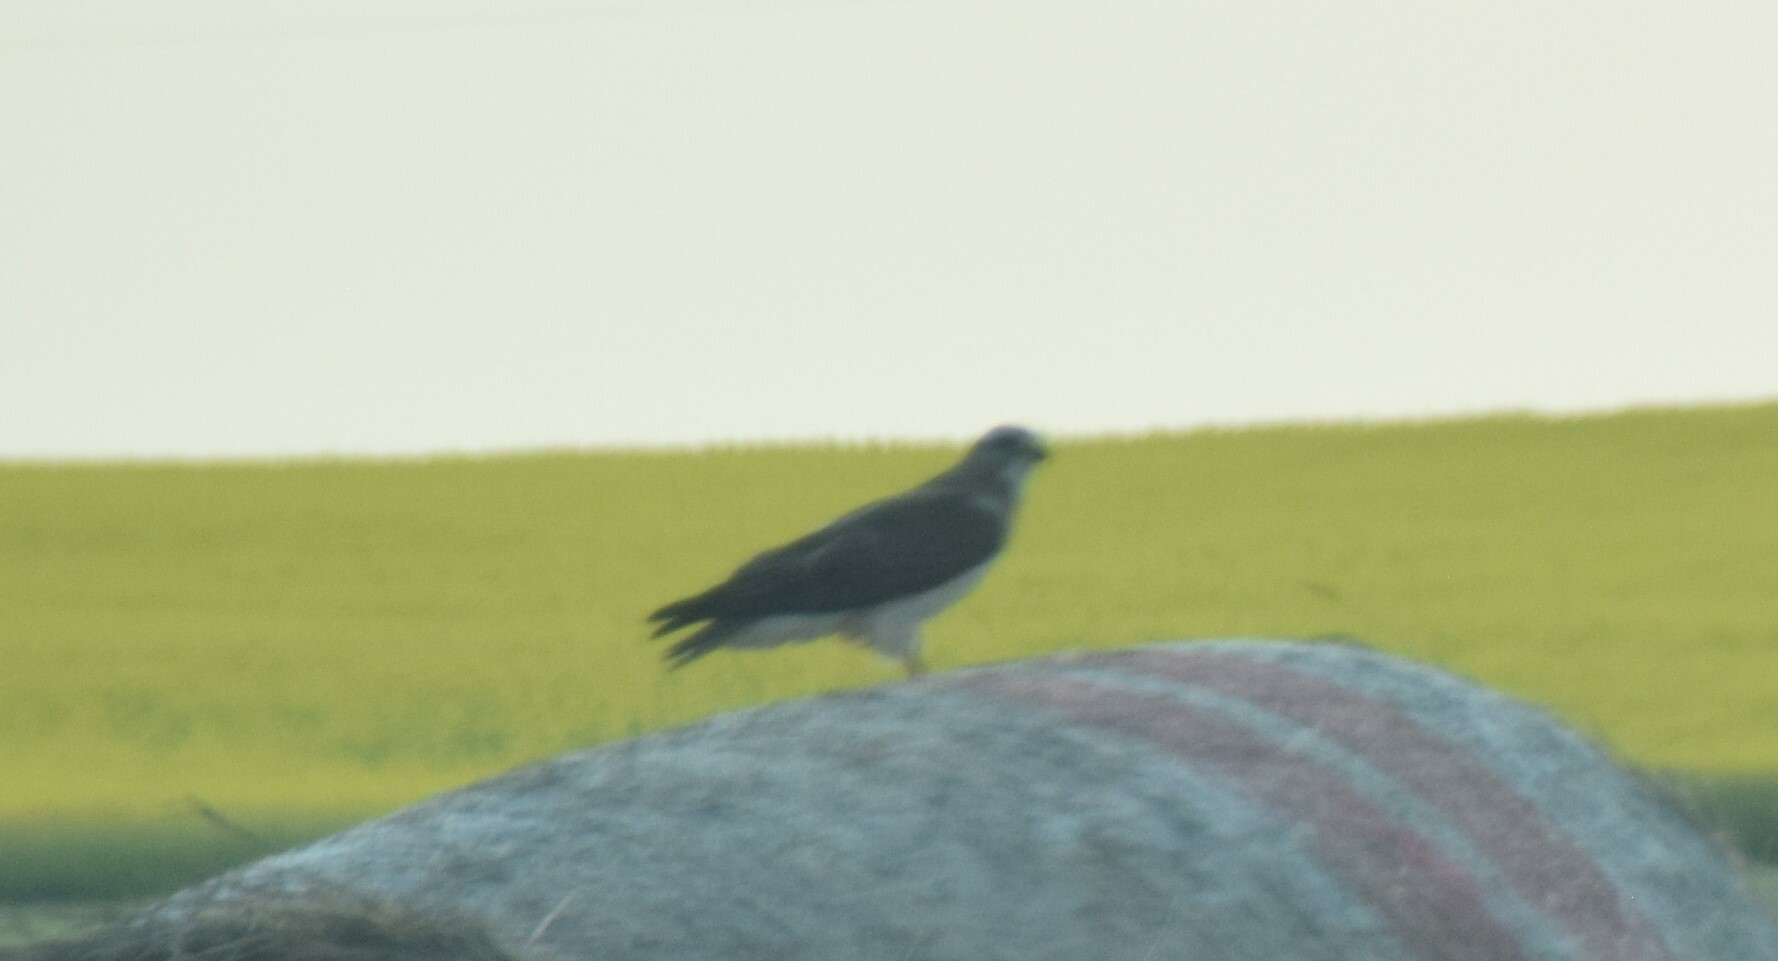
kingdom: Animalia
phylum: Chordata
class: Aves
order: Accipitriformes
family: Accipitridae
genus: Buteo
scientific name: Buteo swainsoni
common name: Swainson's hawk
